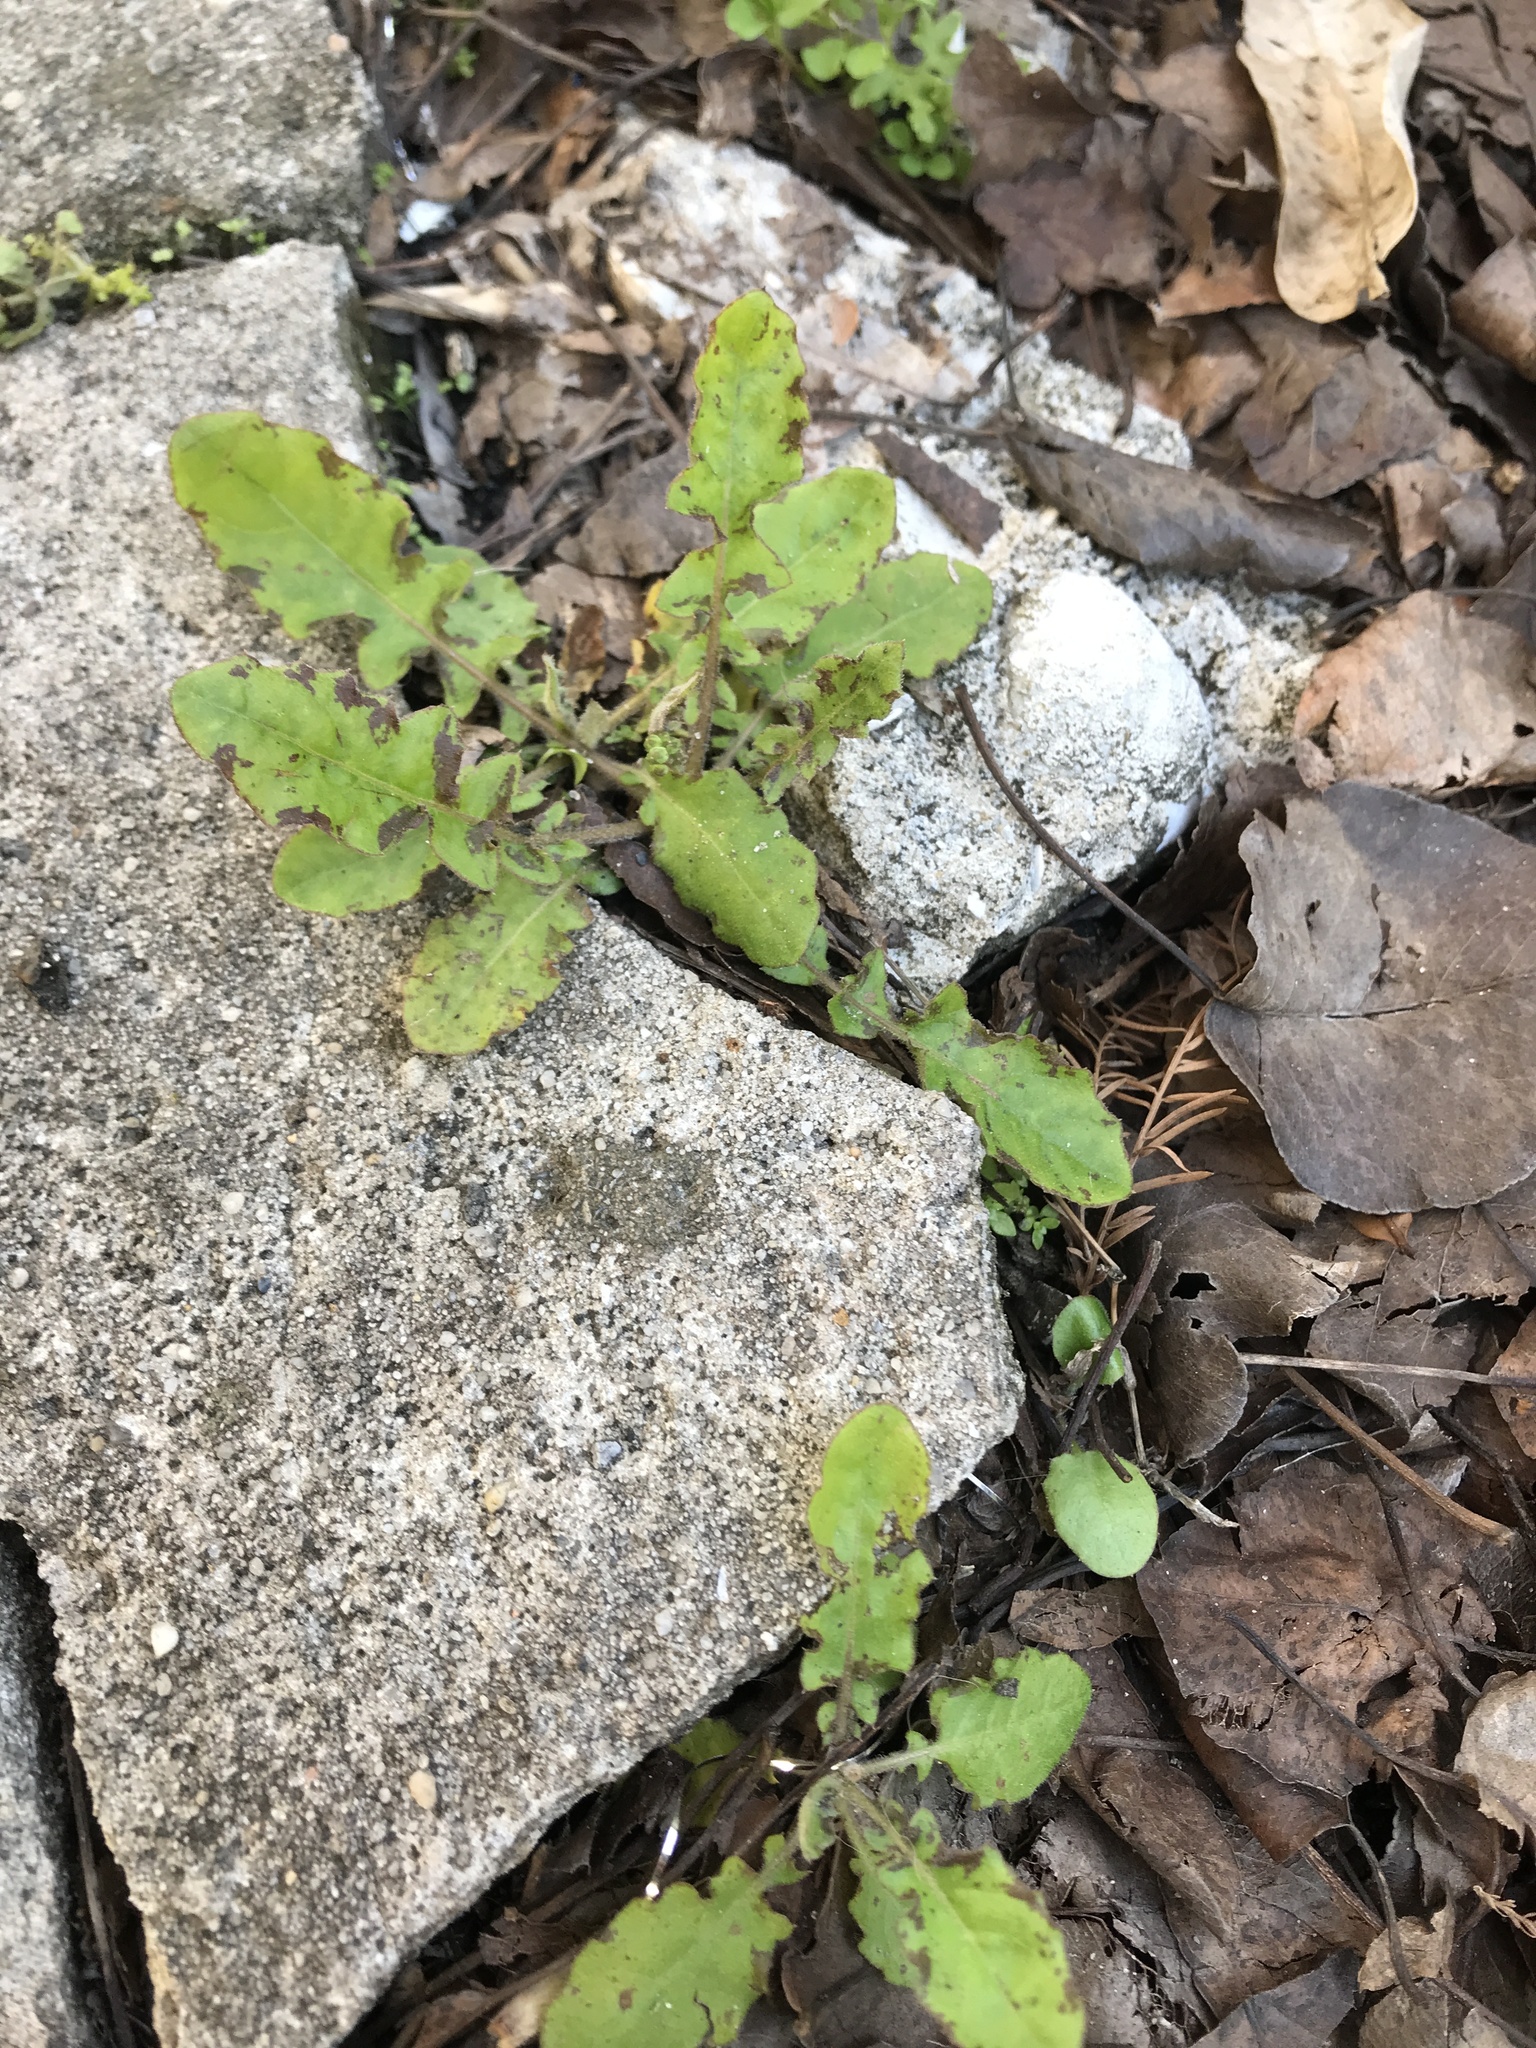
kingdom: Plantae
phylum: Tracheophyta
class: Magnoliopsida
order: Asterales
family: Asteraceae
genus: Youngia
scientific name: Youngia japonica
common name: Oriental false hawksbeard
